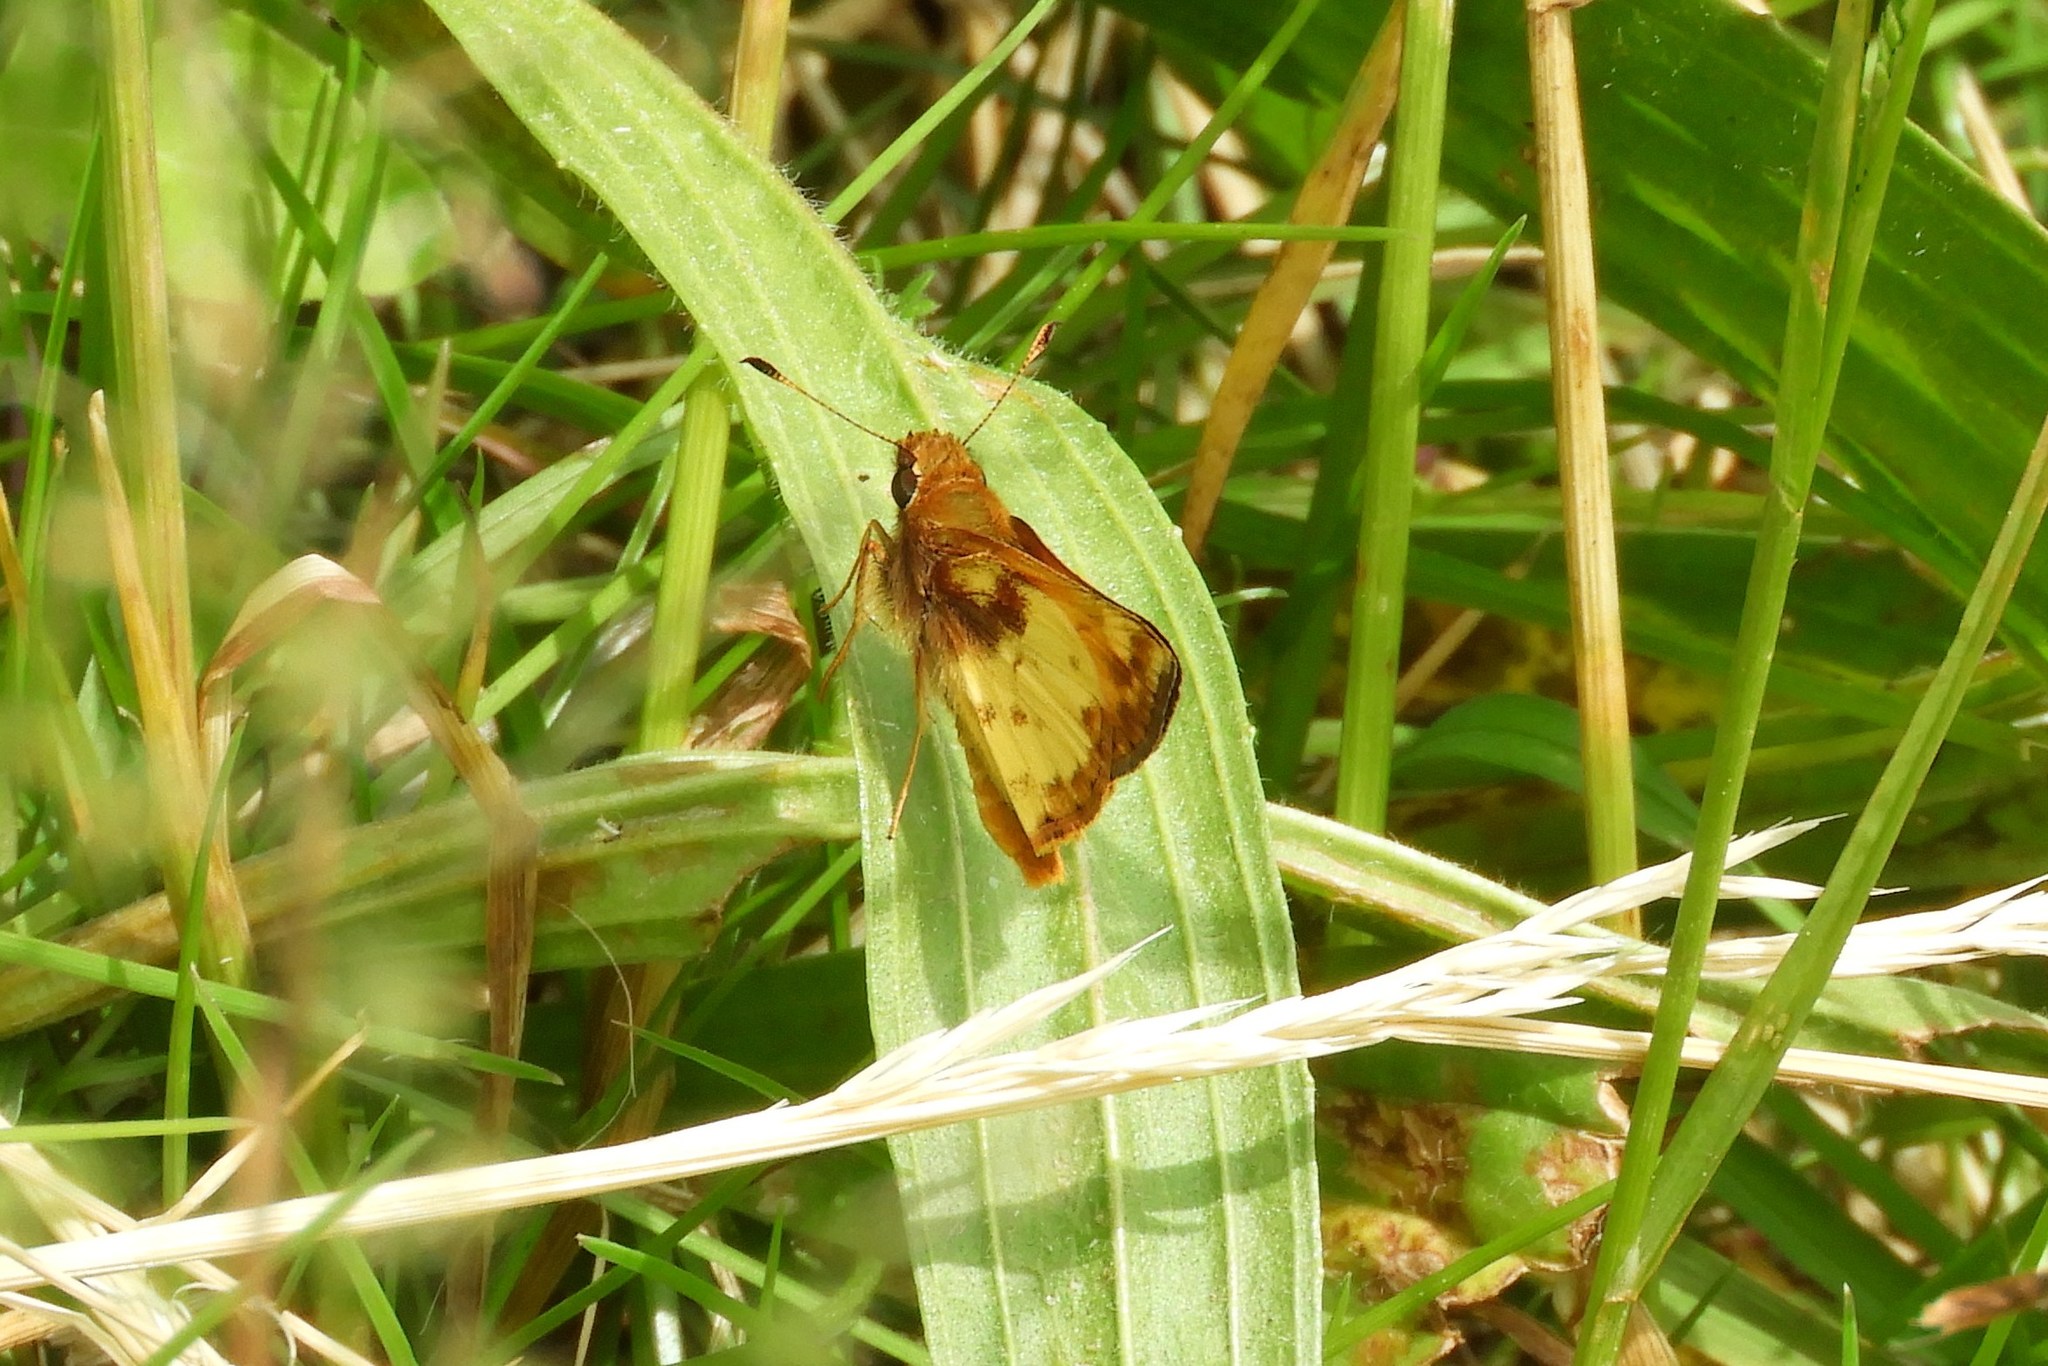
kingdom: Animalia
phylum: Arthropoda
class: Insecta
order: Lepidoptera
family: Hesperiidae
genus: Lon
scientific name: Lon zabulon
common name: Zabulon skipper
